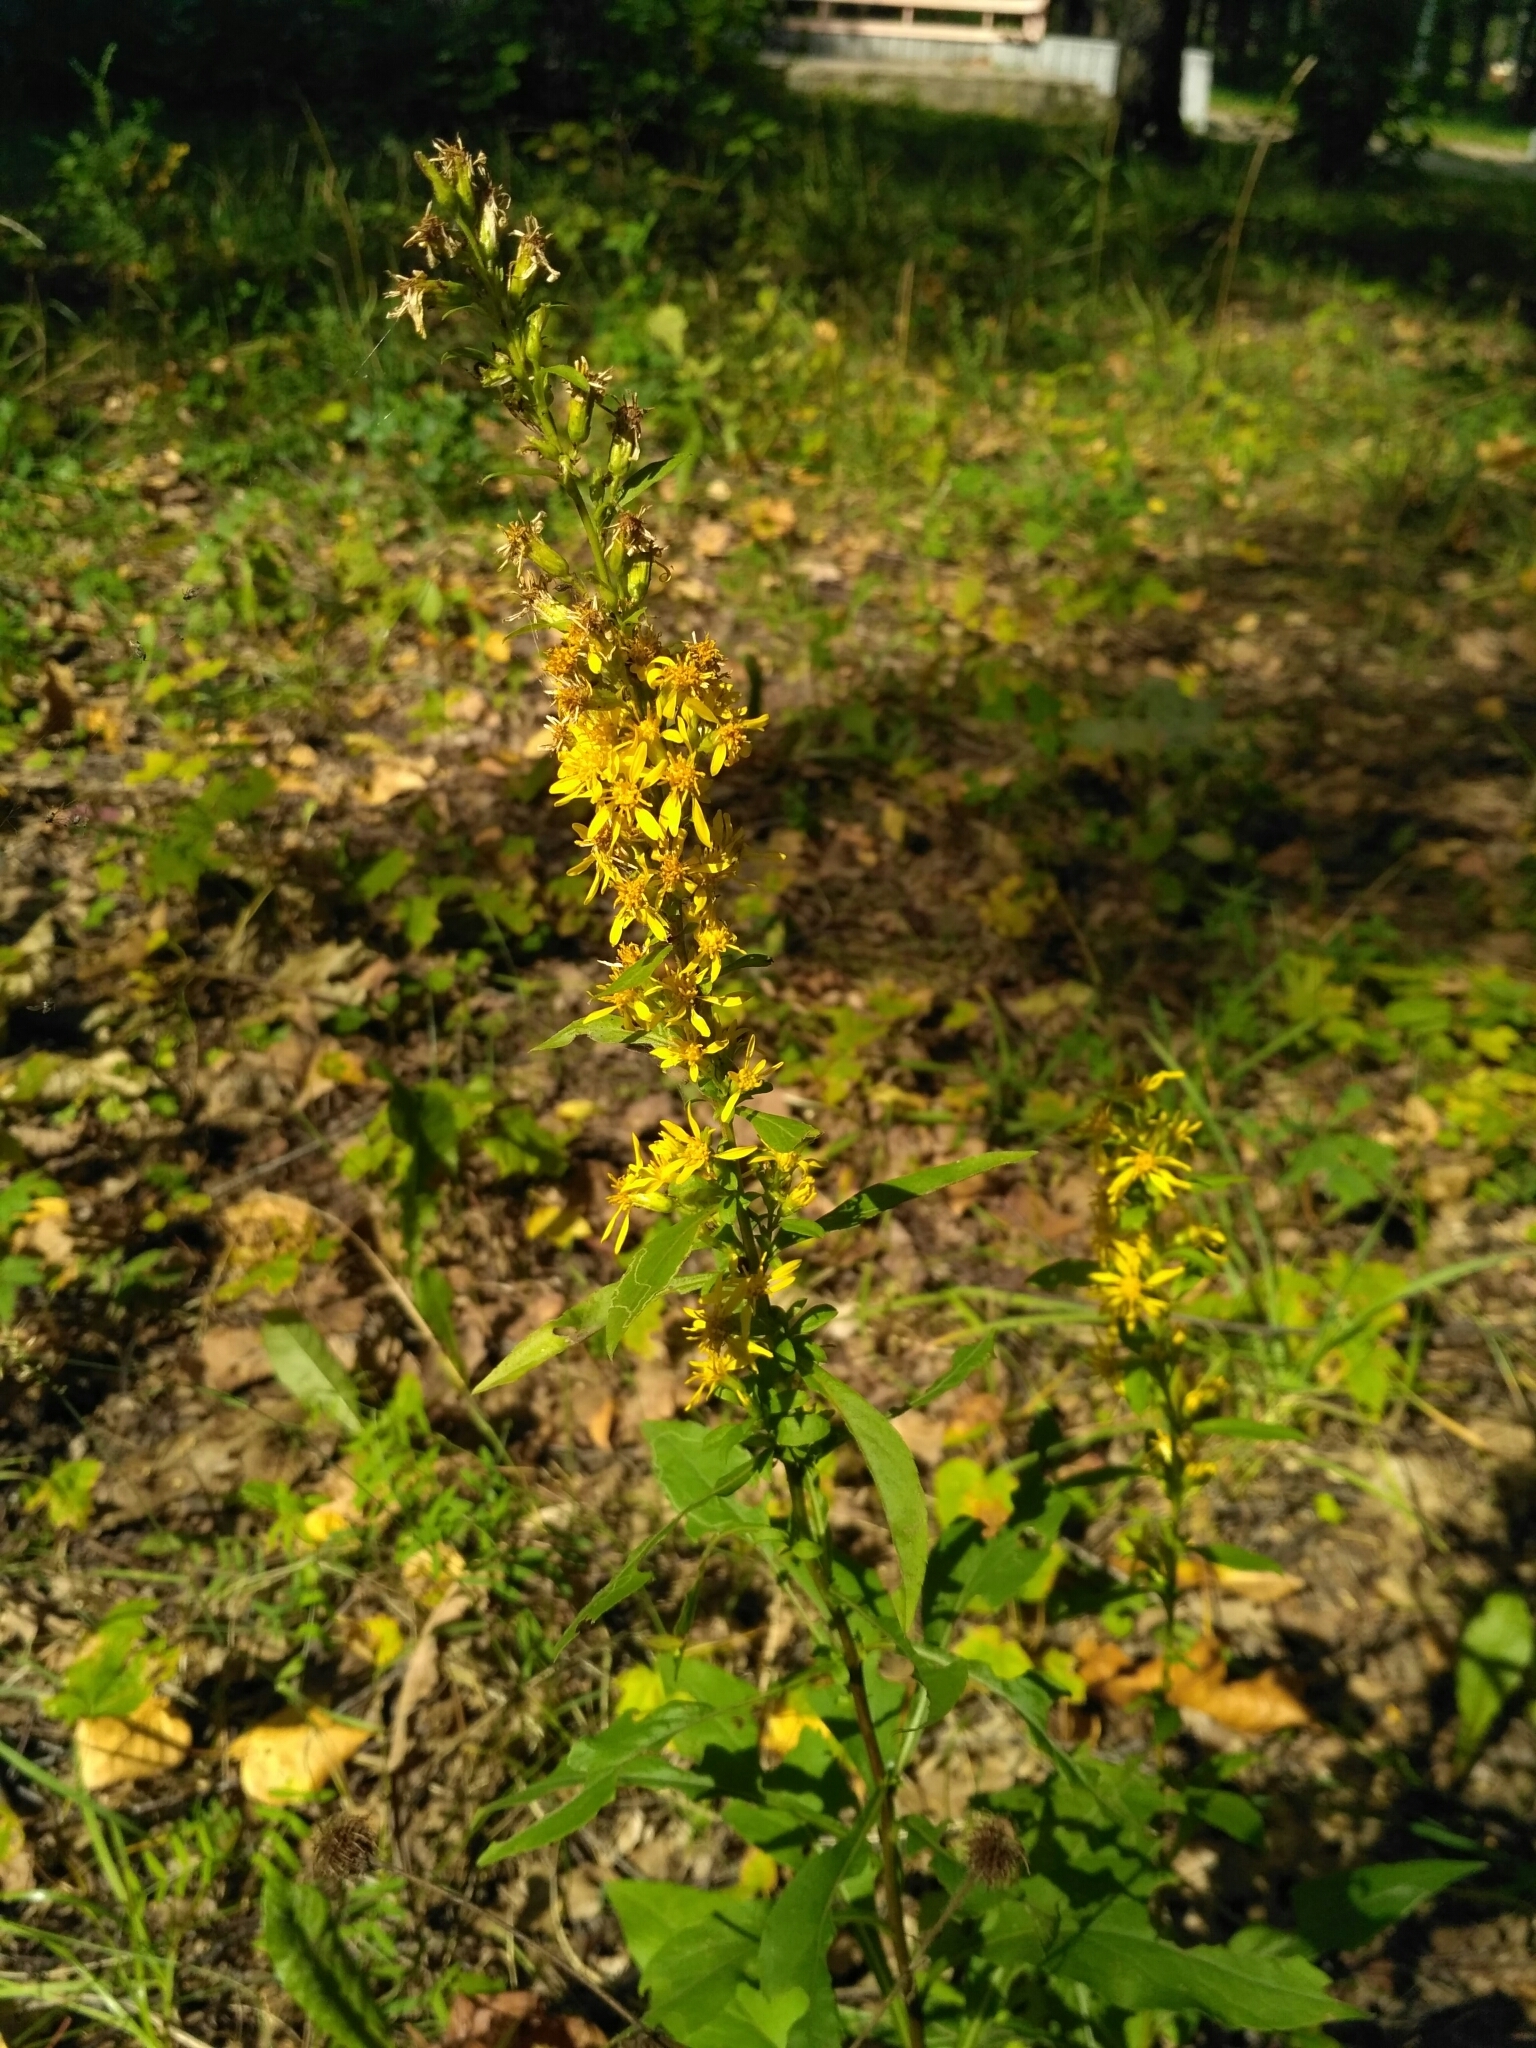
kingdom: Plantae
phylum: Tracheophyta
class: Magnoliopsida
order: Asterales
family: Asteraceae
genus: Solidago
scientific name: Solidago virgaurea
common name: Goldenrod
